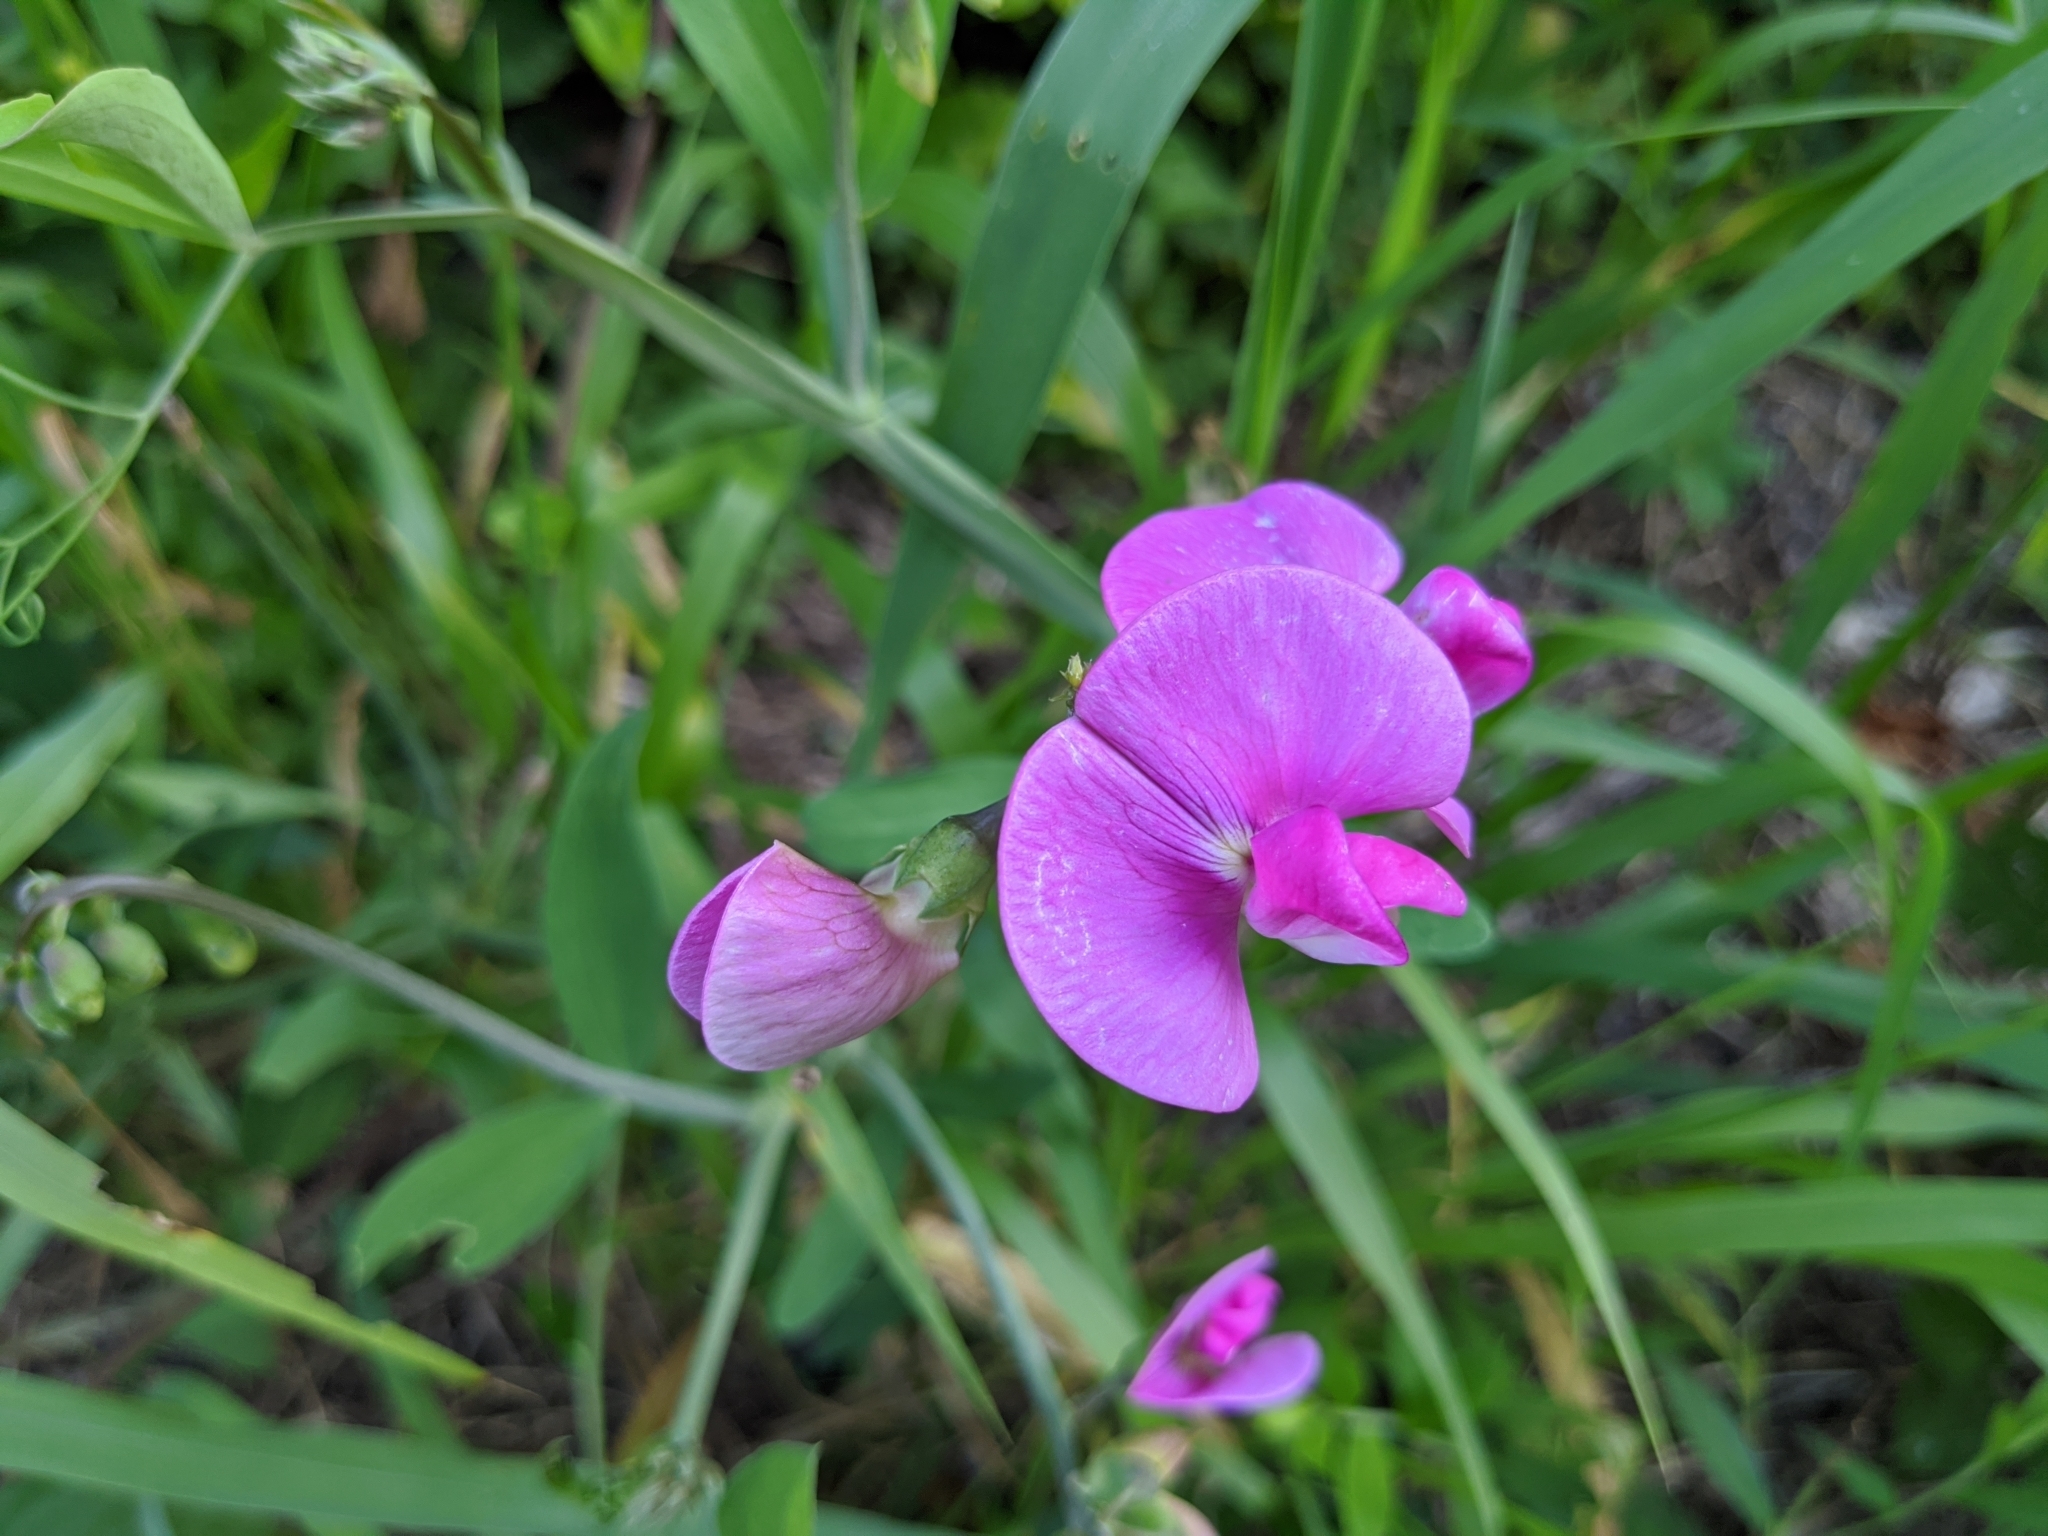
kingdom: Plantae
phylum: Tracheophyta
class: Magnoliopsida
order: Fabales
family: Fabaceae
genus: Lathyrus
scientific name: Lathyrus latifolius
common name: Perennial pea
